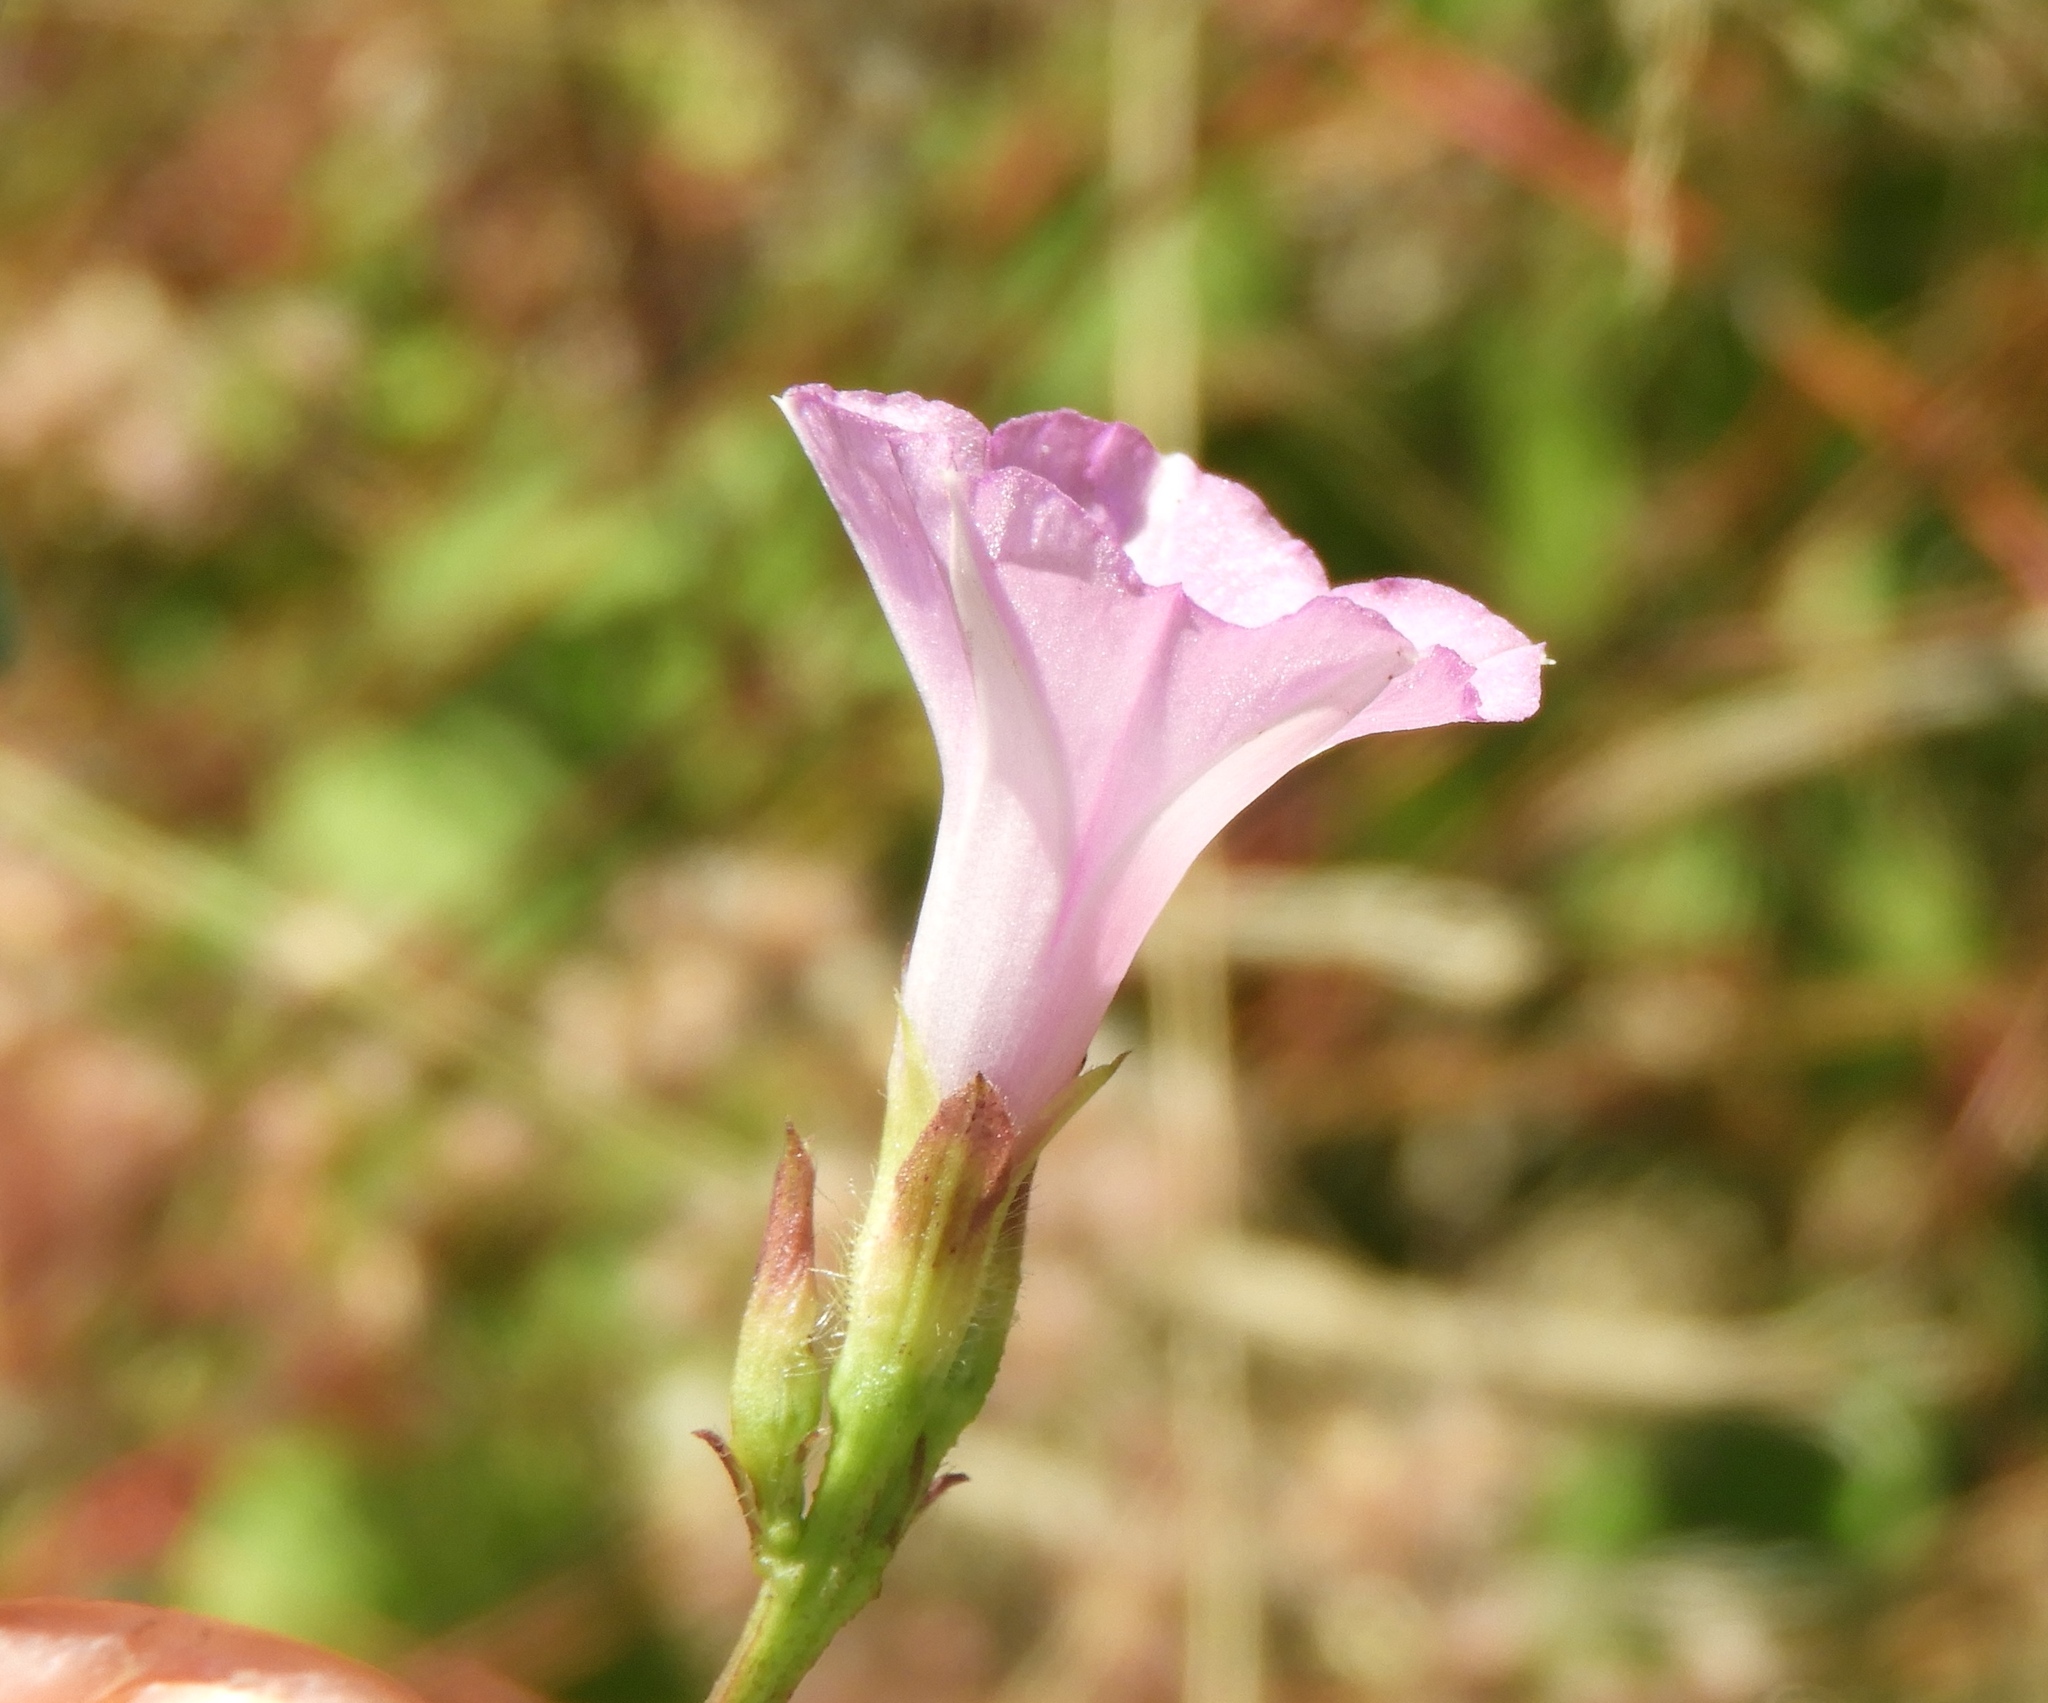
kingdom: Plantae
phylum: Tracheophyta
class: Magnoliopsida
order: Solanales
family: Convolvulaceae
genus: Ipomoea
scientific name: Ipomoea triloba
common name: Little-bell
